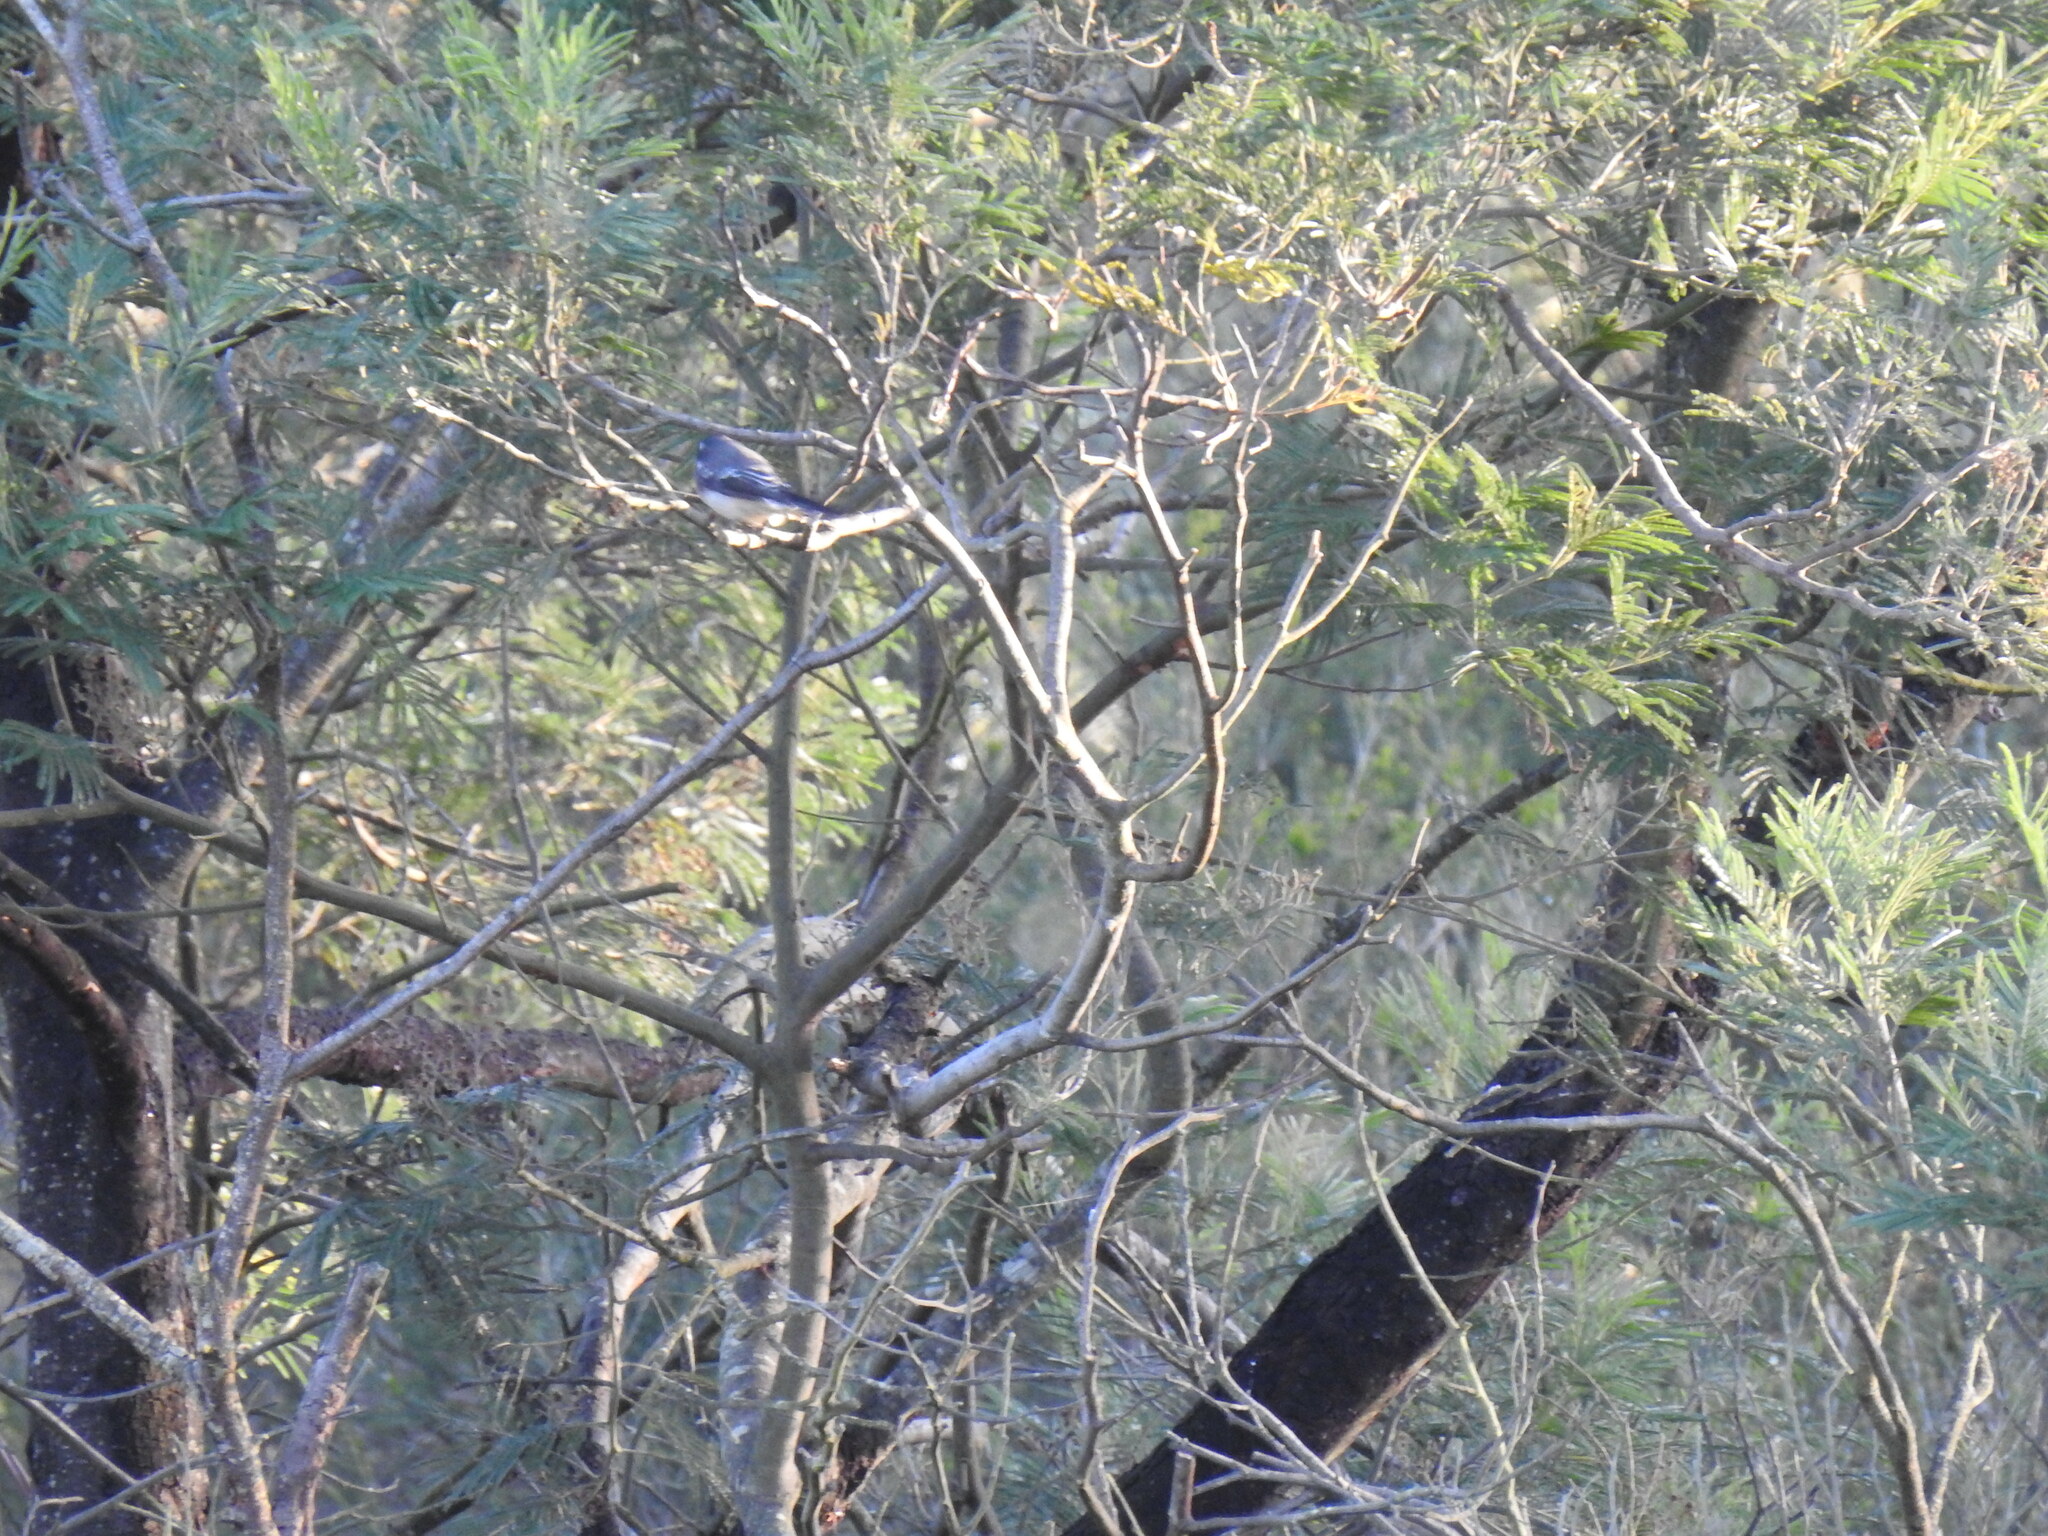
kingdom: Animalia
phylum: Chordata
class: Aves
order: Passeriformes
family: Rhipiduridae
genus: Rhipidura
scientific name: Rhipidura albiscapa
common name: Grey fantail
